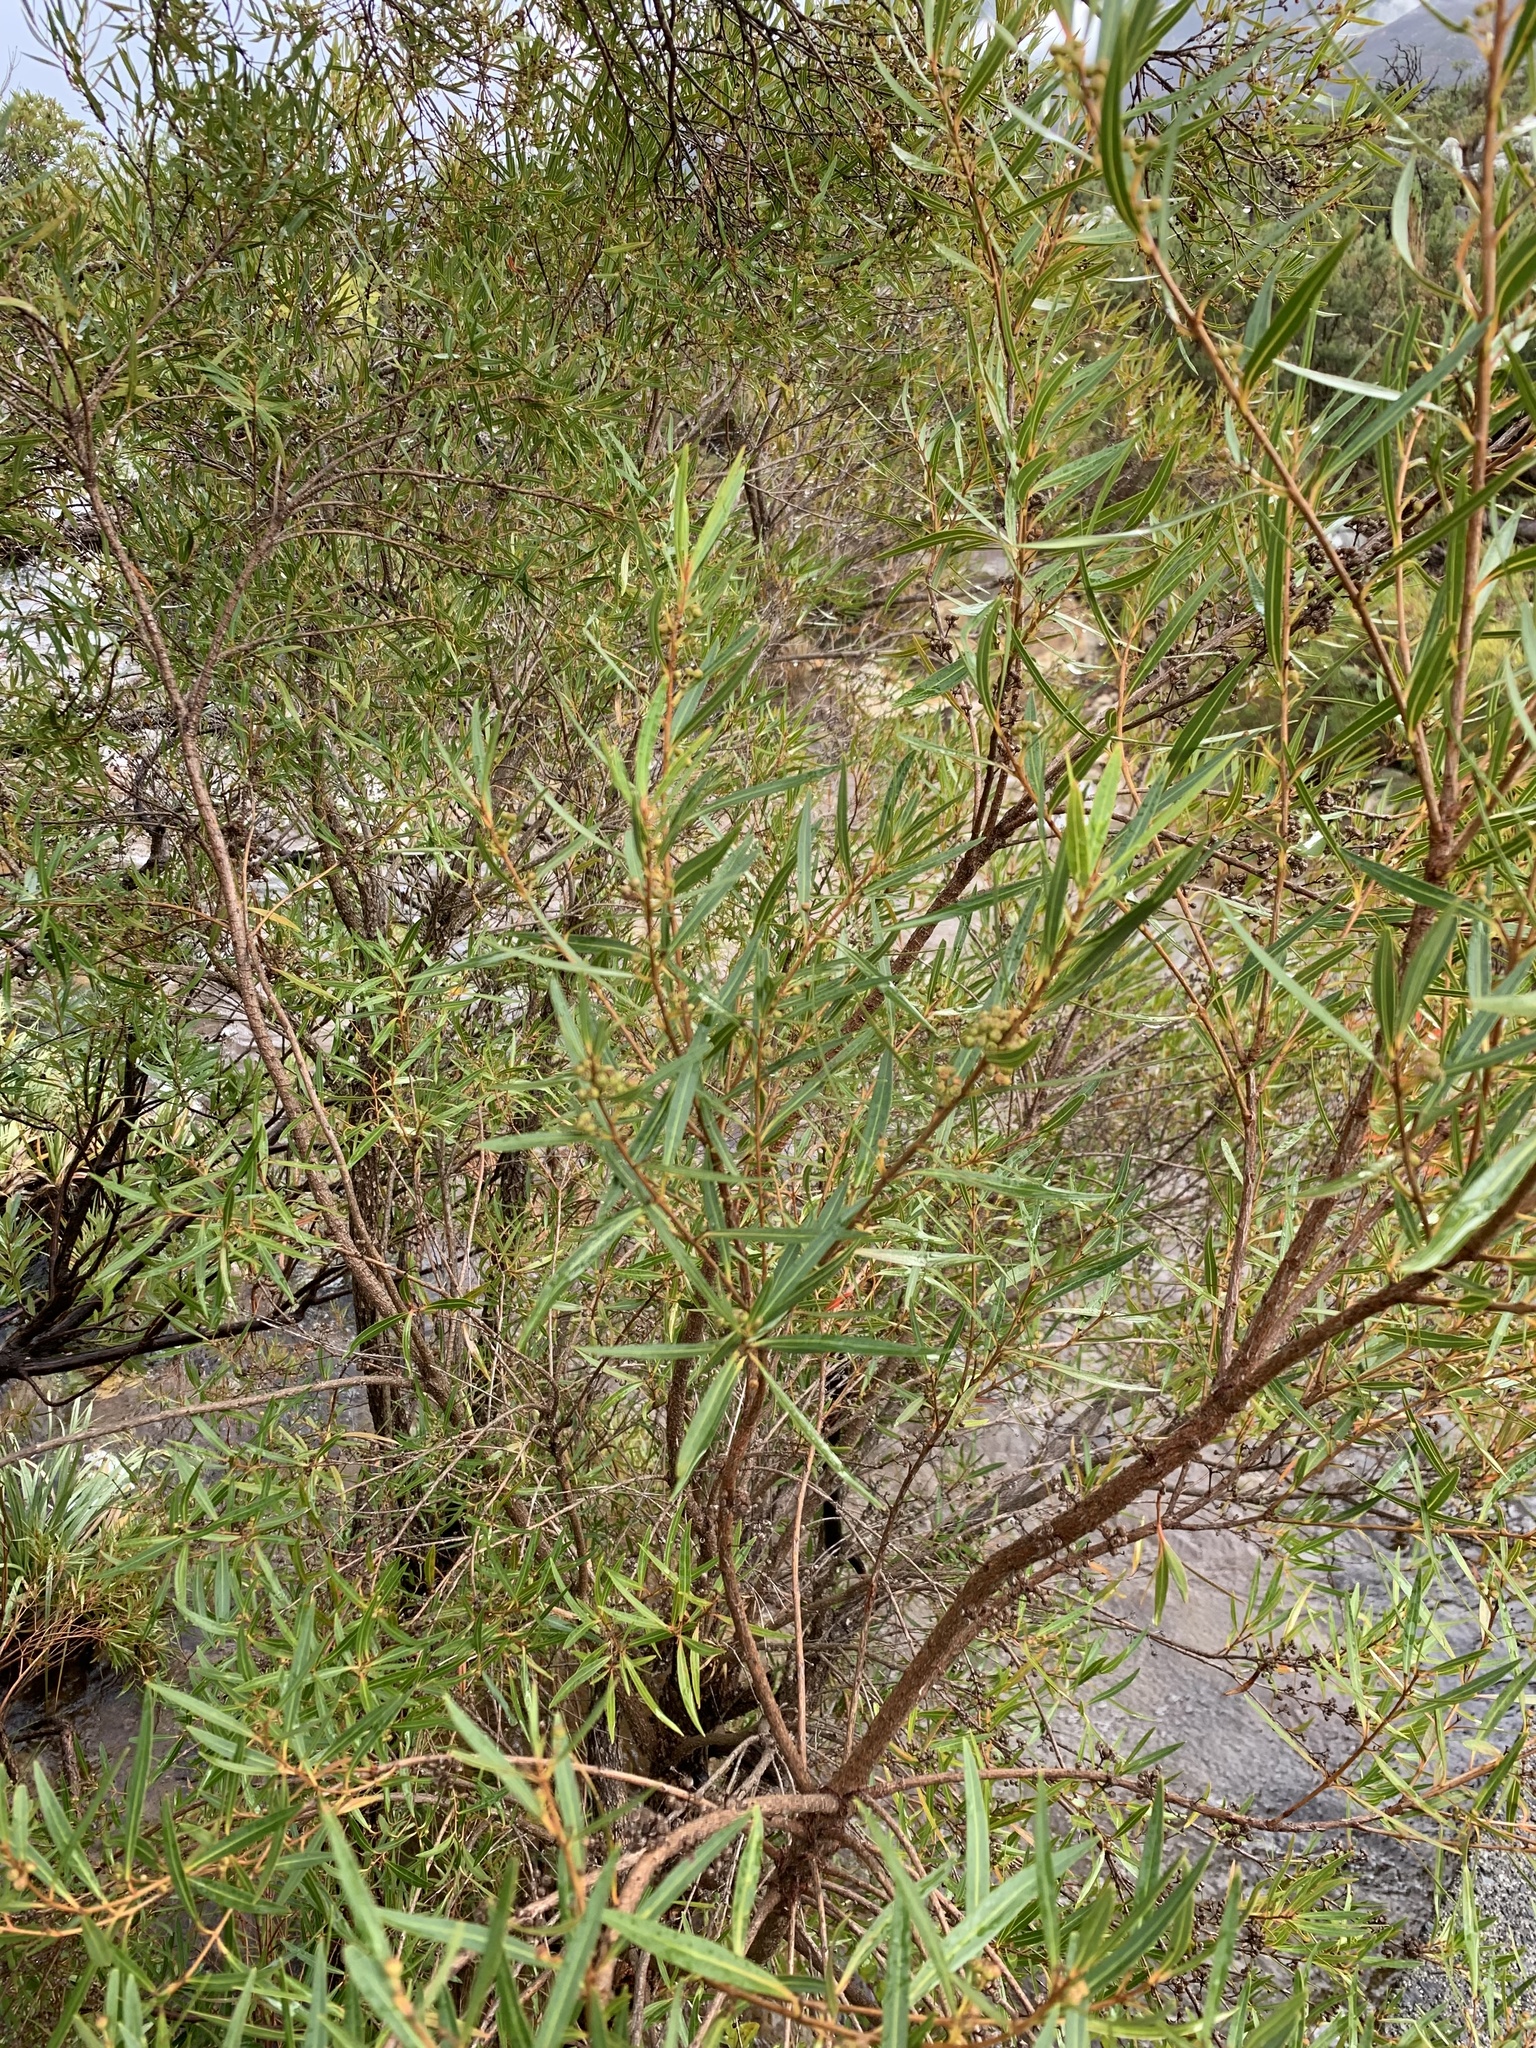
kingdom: Plantae
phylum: Tracheophyta
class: Magnoliopsida
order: Myrtales
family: Myrtaceae
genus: Callistemon
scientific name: Callistemon lanceolatus
